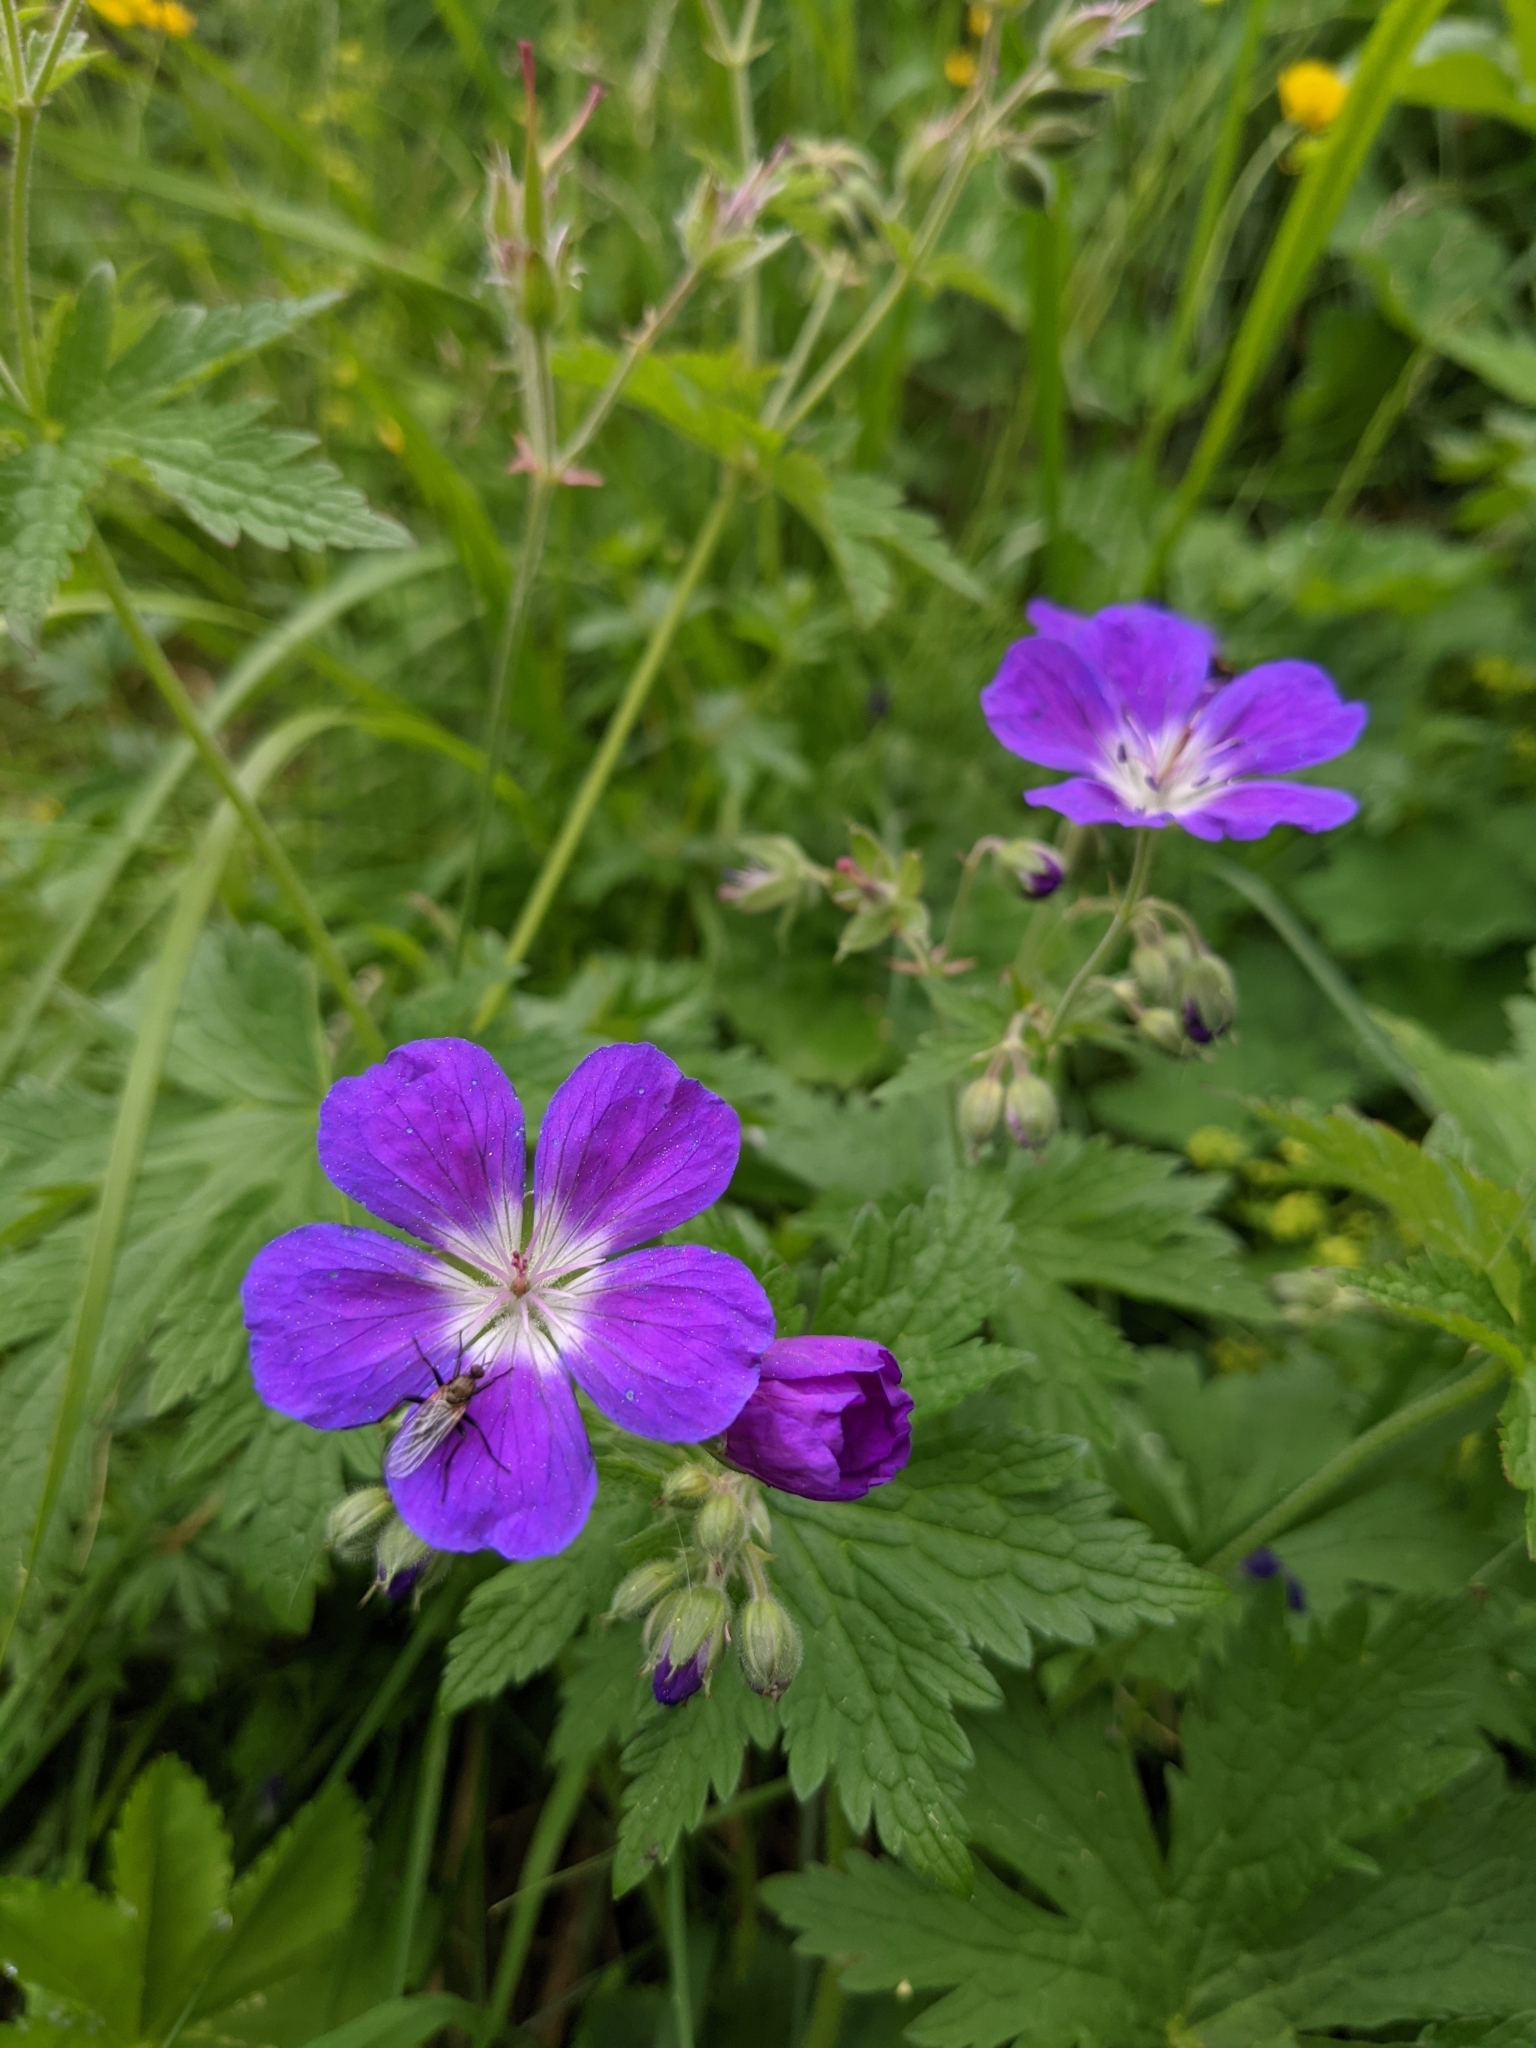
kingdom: Plantae
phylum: Tracheophyta
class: Magnoliopsida
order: Geraniales
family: Geraniaceae
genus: Geranium
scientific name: Geranium sylvaticum
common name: Wood crane's-bill
